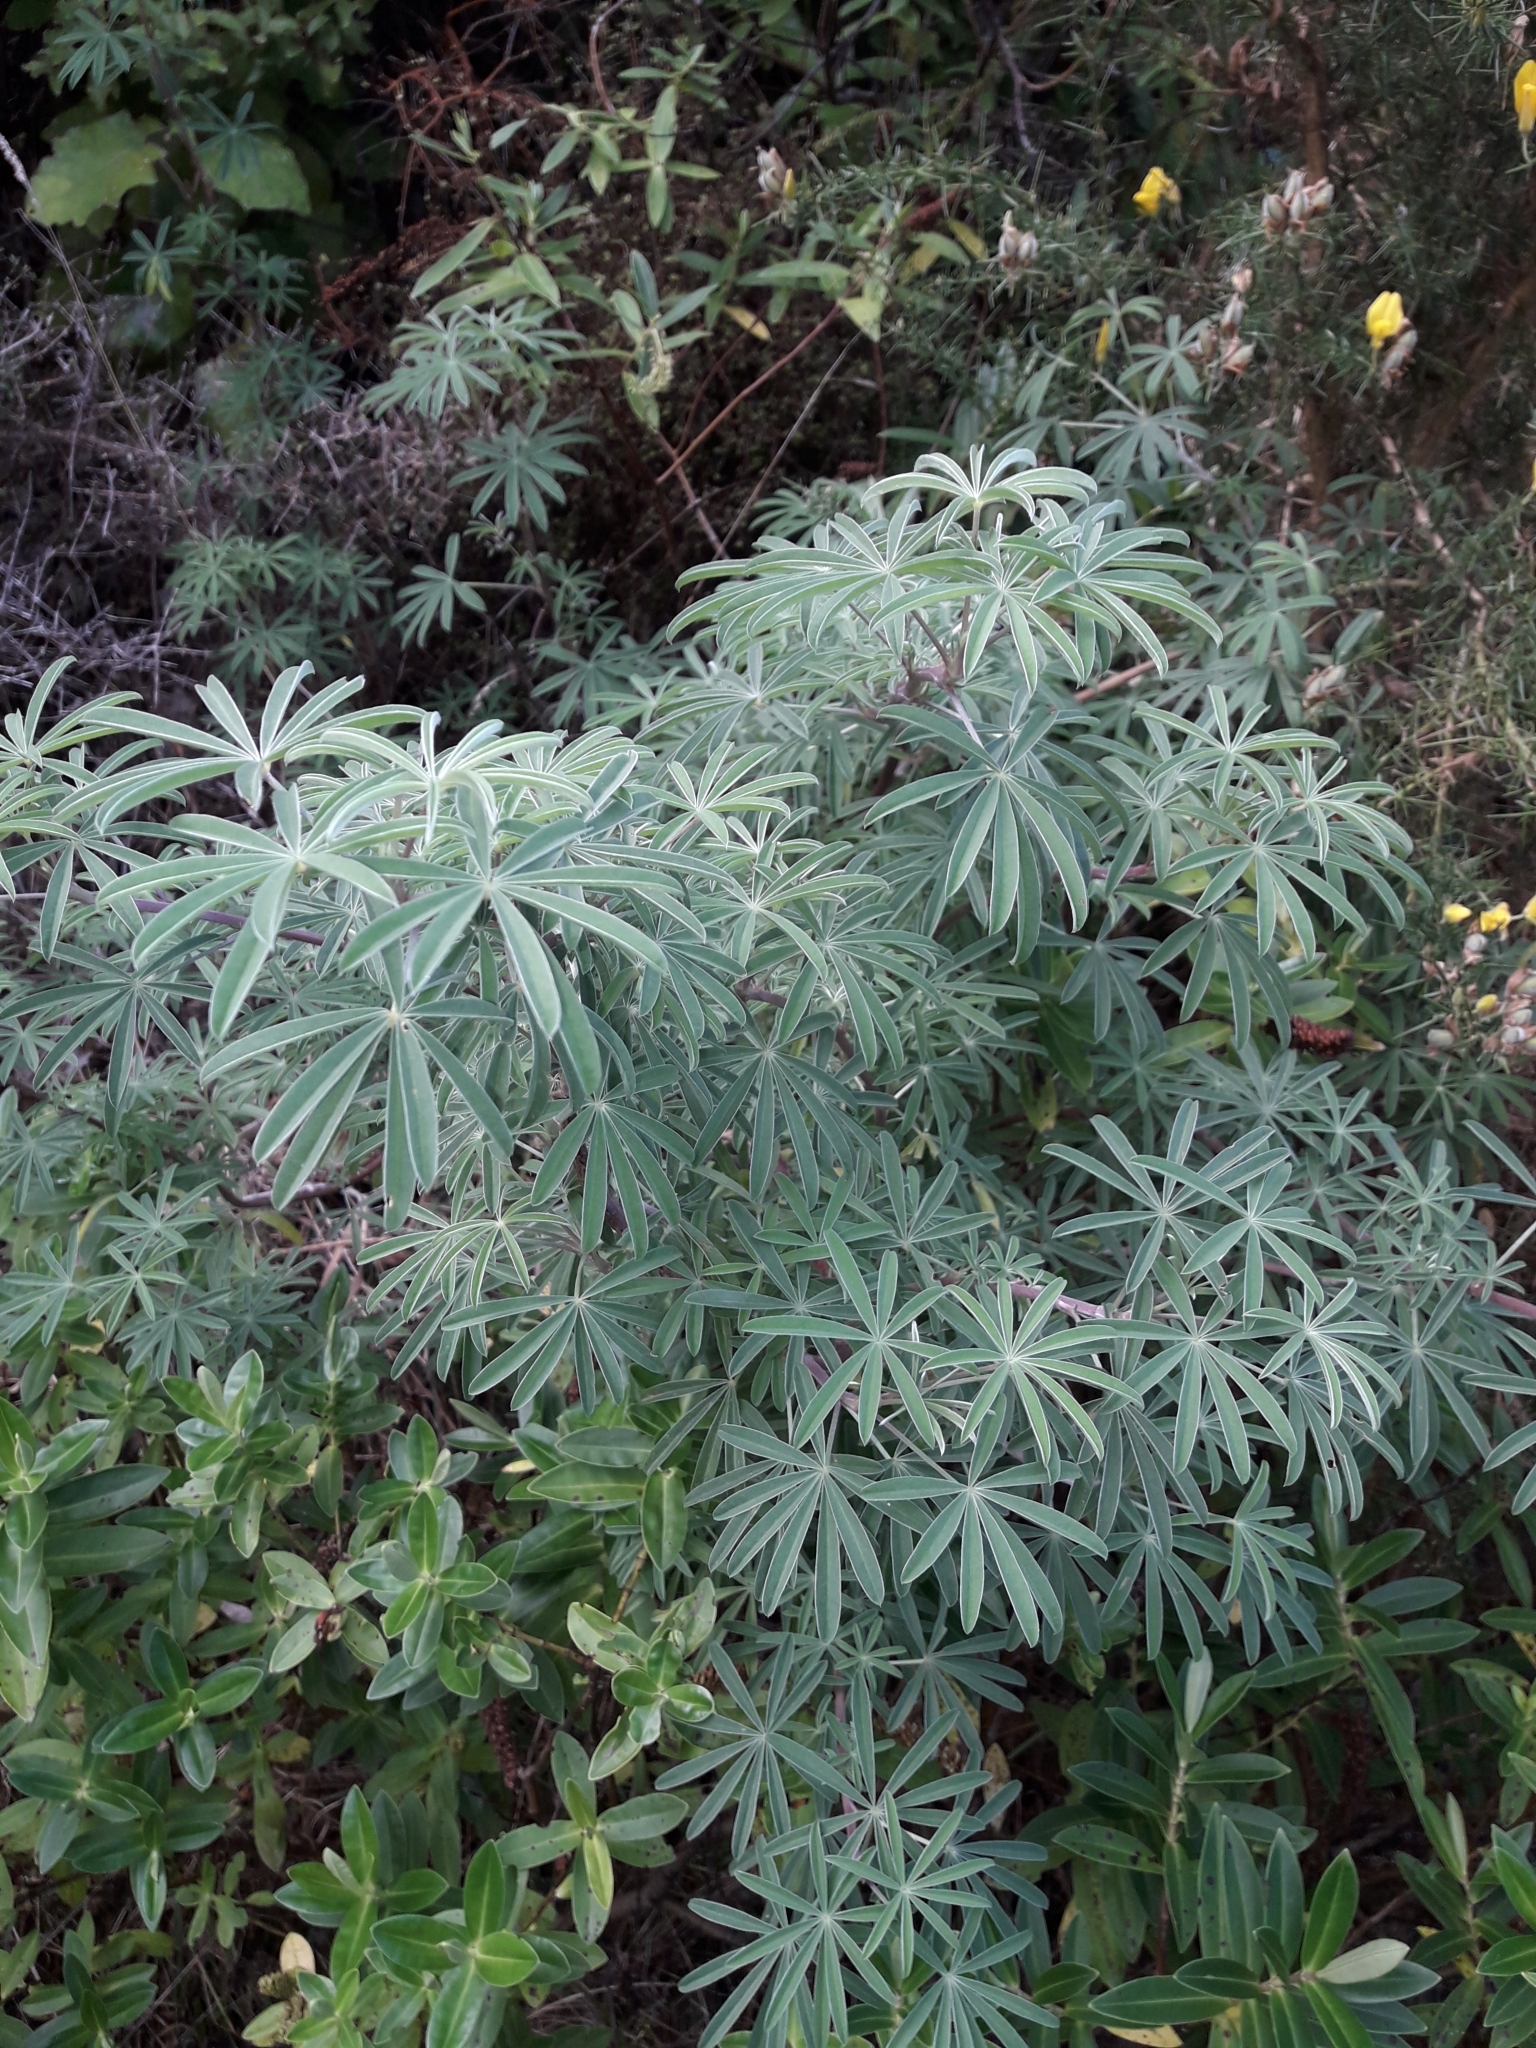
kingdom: Plantae
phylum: Tracheophyta
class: Magnoliopsida
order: Fabales
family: Fabaceae
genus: Lupinus
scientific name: Lupinus arboreus
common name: Yellow bush lupine
